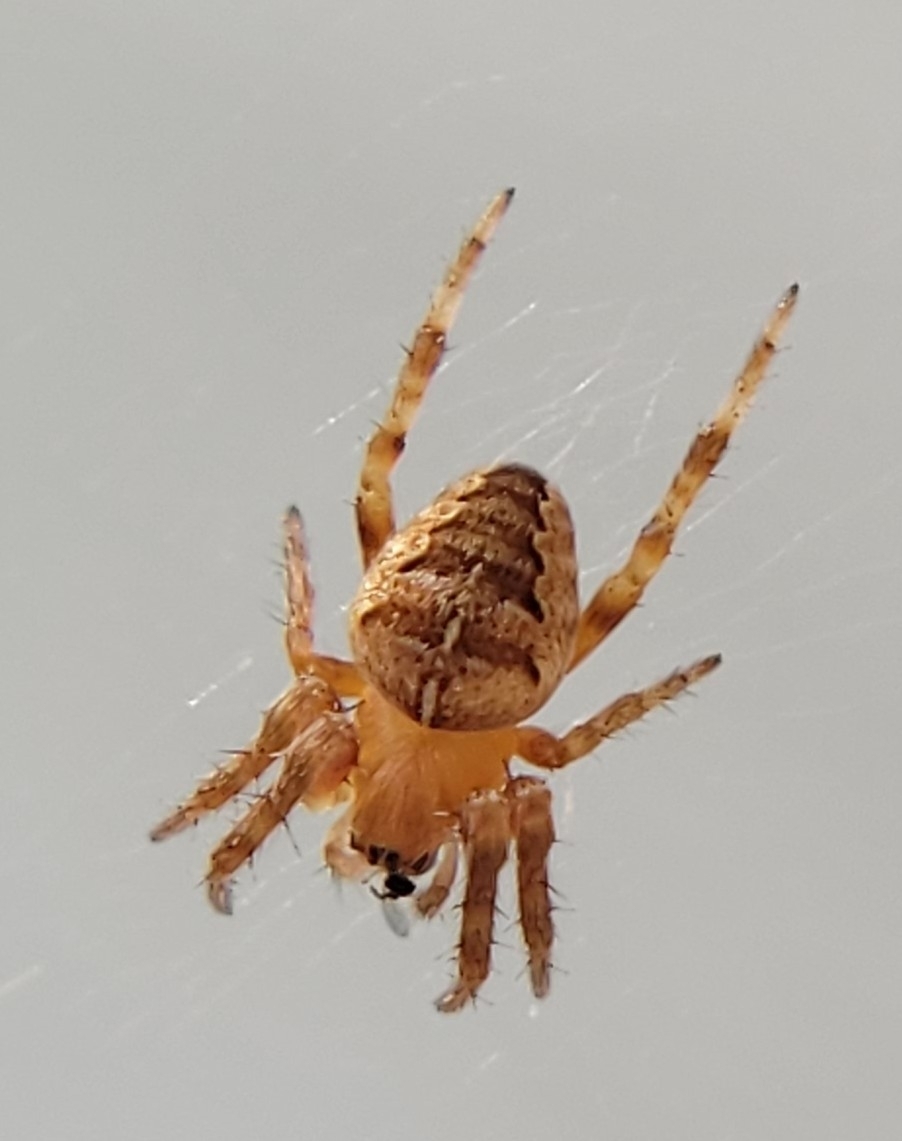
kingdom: Animalia
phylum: Arthropoda
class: Arachnida
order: Araneae
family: Araneidae
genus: Araneus
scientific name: Araneus diadematus
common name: Cross orbweaver
